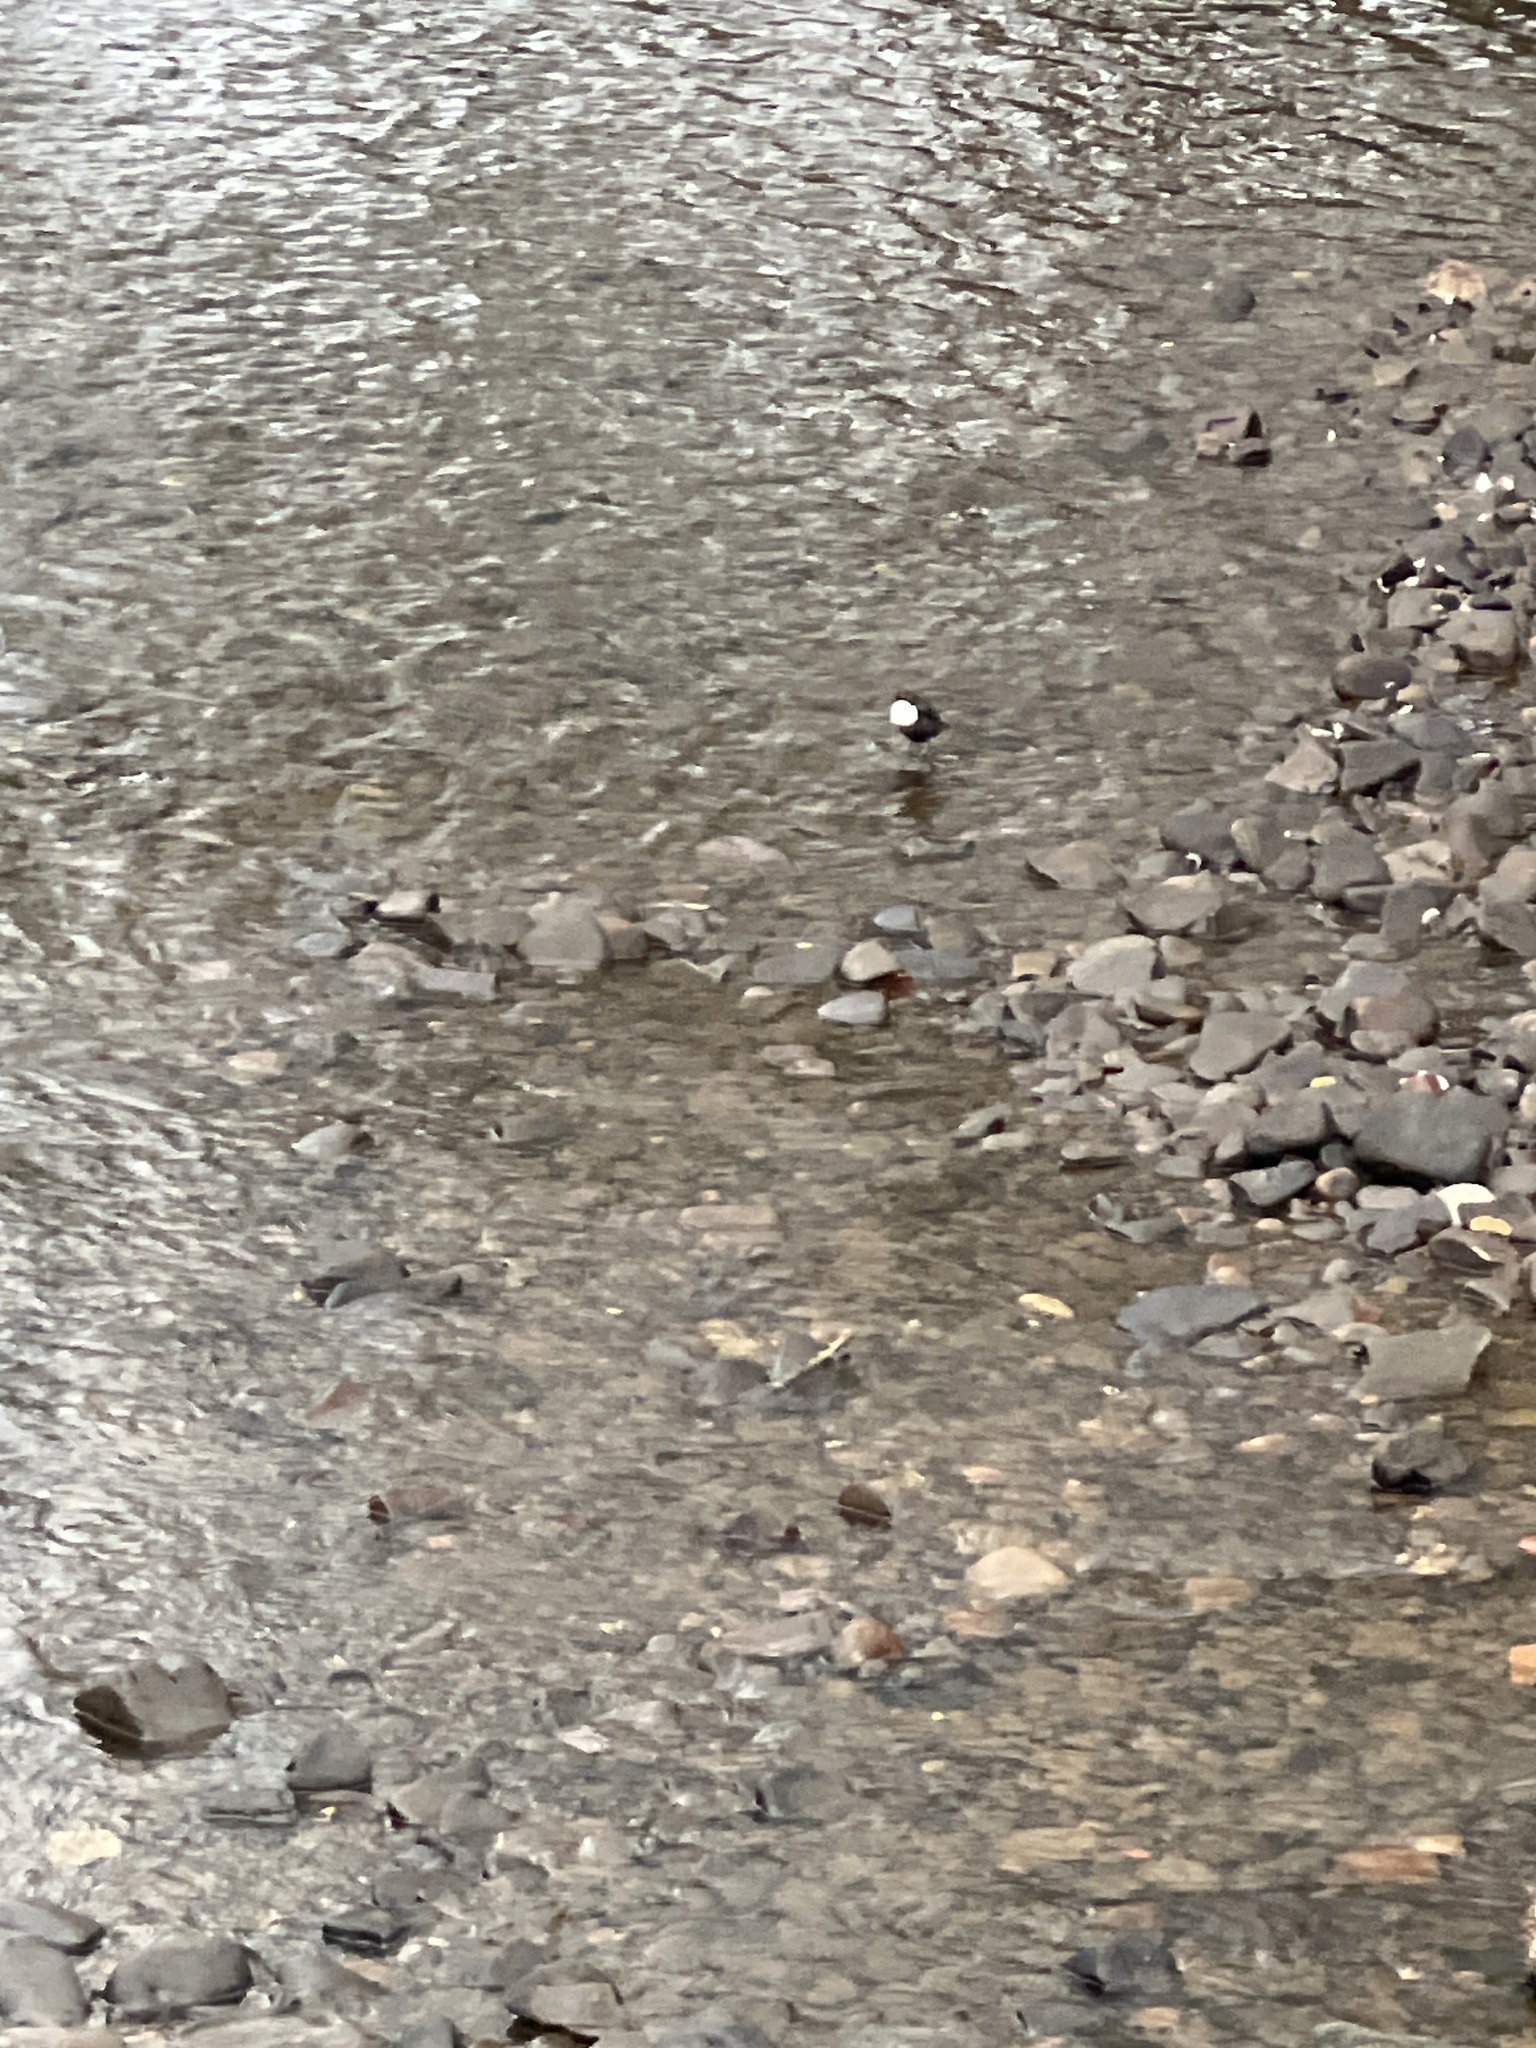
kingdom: Animalia
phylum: Chordata
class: Aves
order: Passeriformes
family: Cinclidae
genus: Cinclus
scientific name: Cinclus cinclus
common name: White-throated dipper
